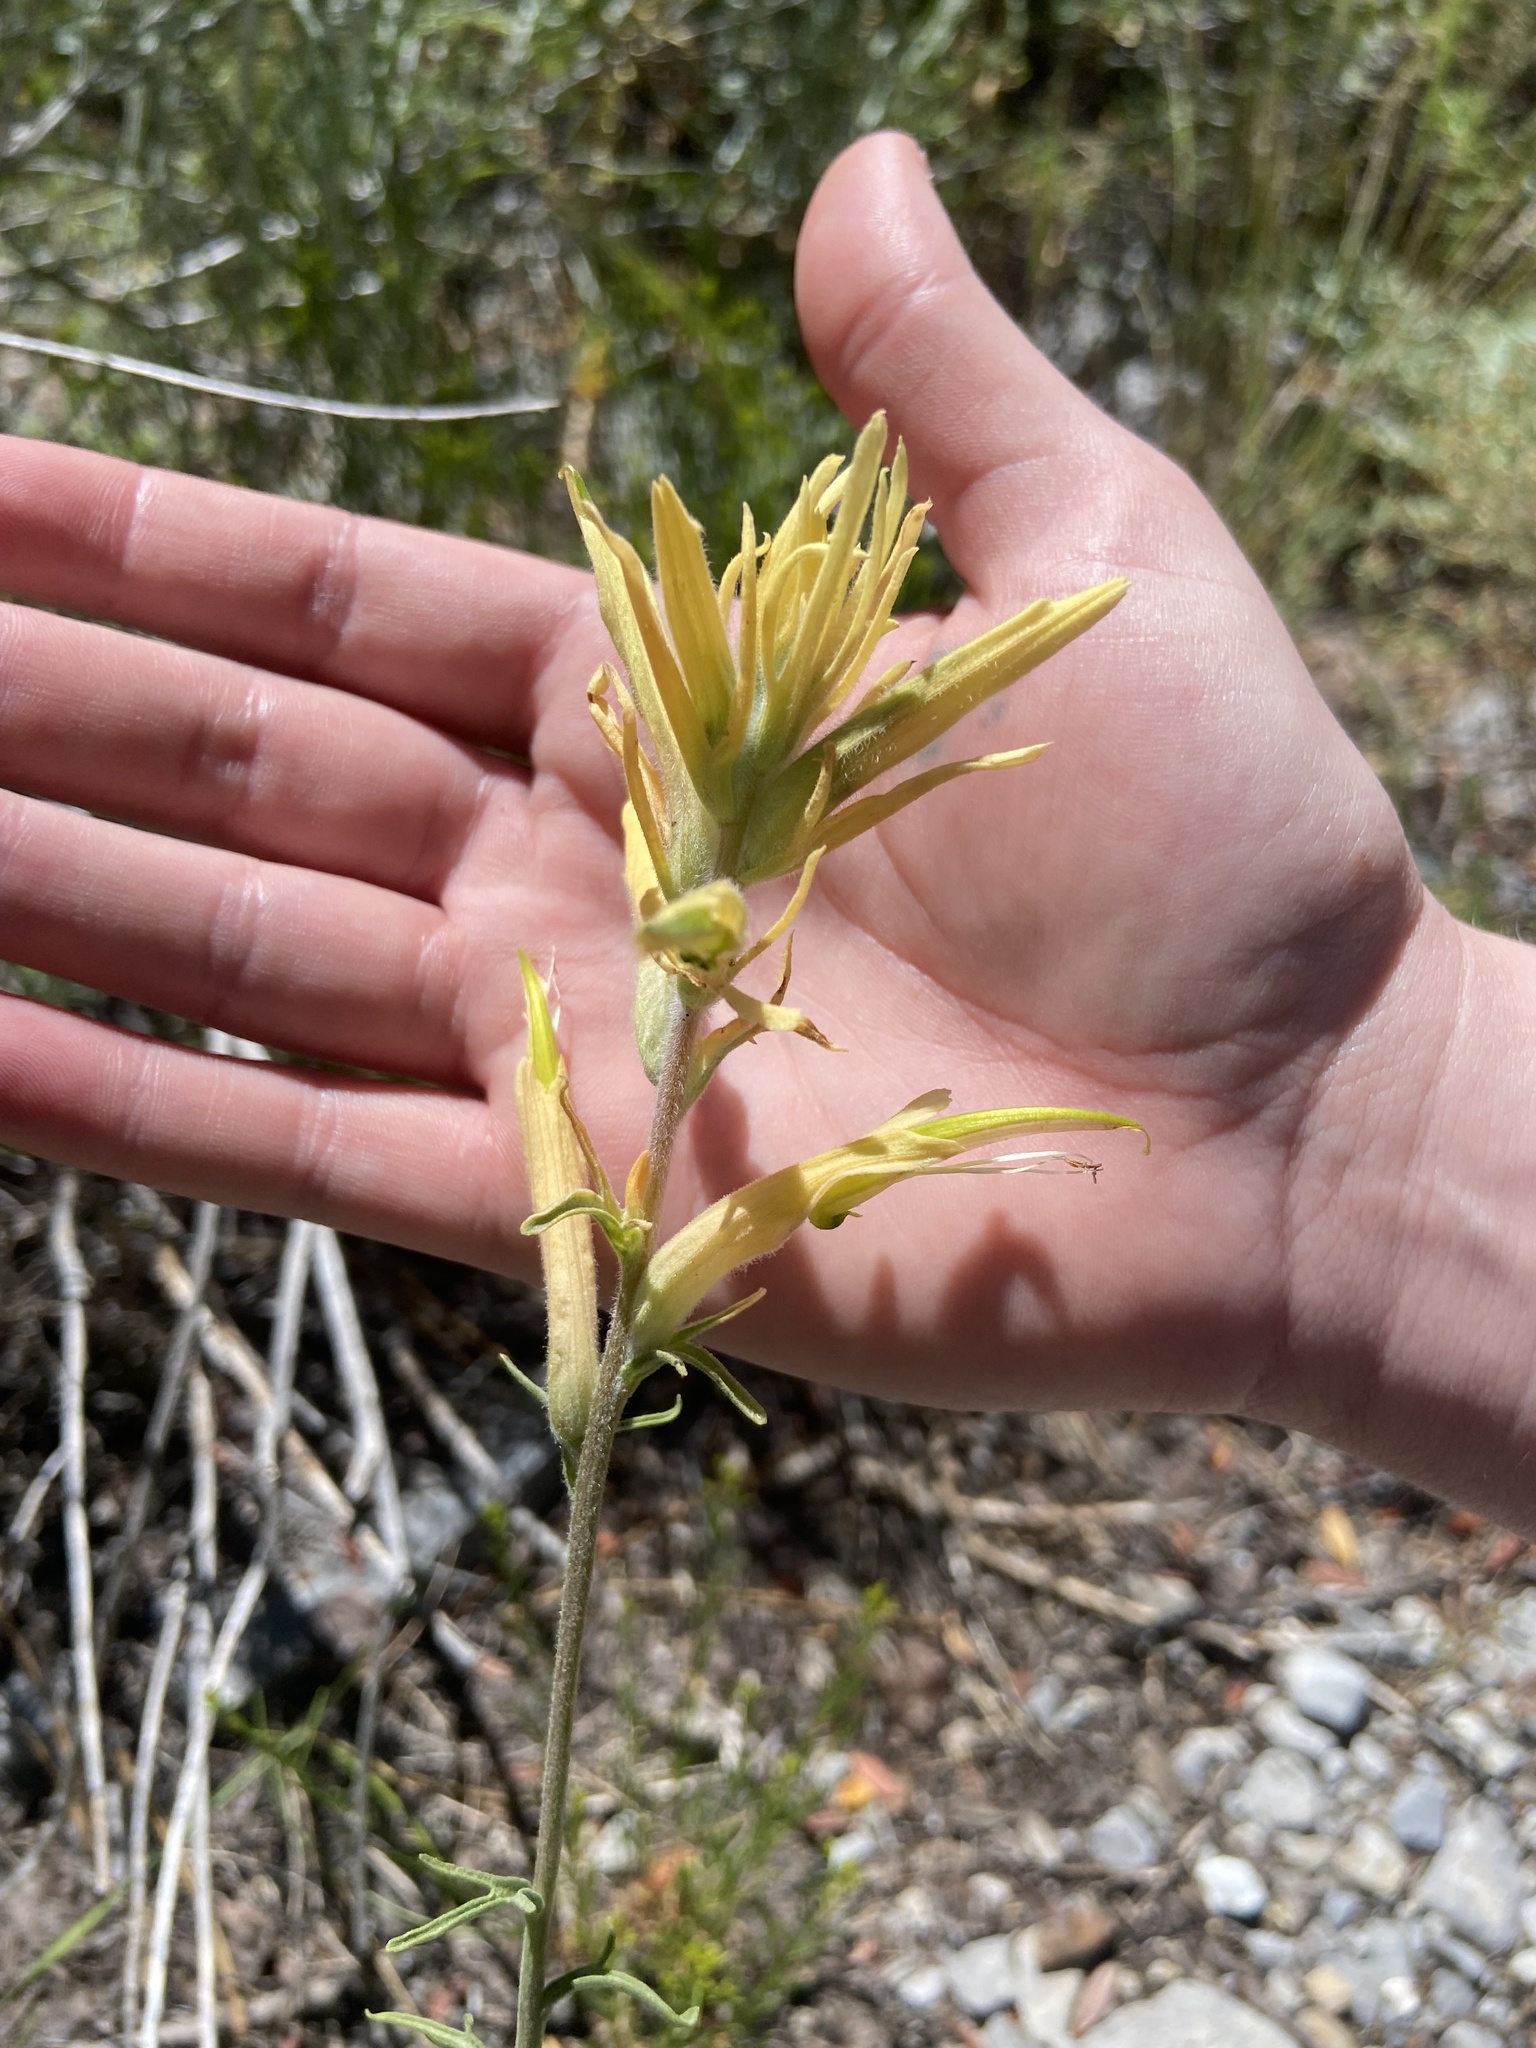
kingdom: Plantae
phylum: Tracheophyta
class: Magnoliopsida
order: Lamiales
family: Orobanchaceae
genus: Castilleja
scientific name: Castilleja linariifolia
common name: Wyoming paintbrush
